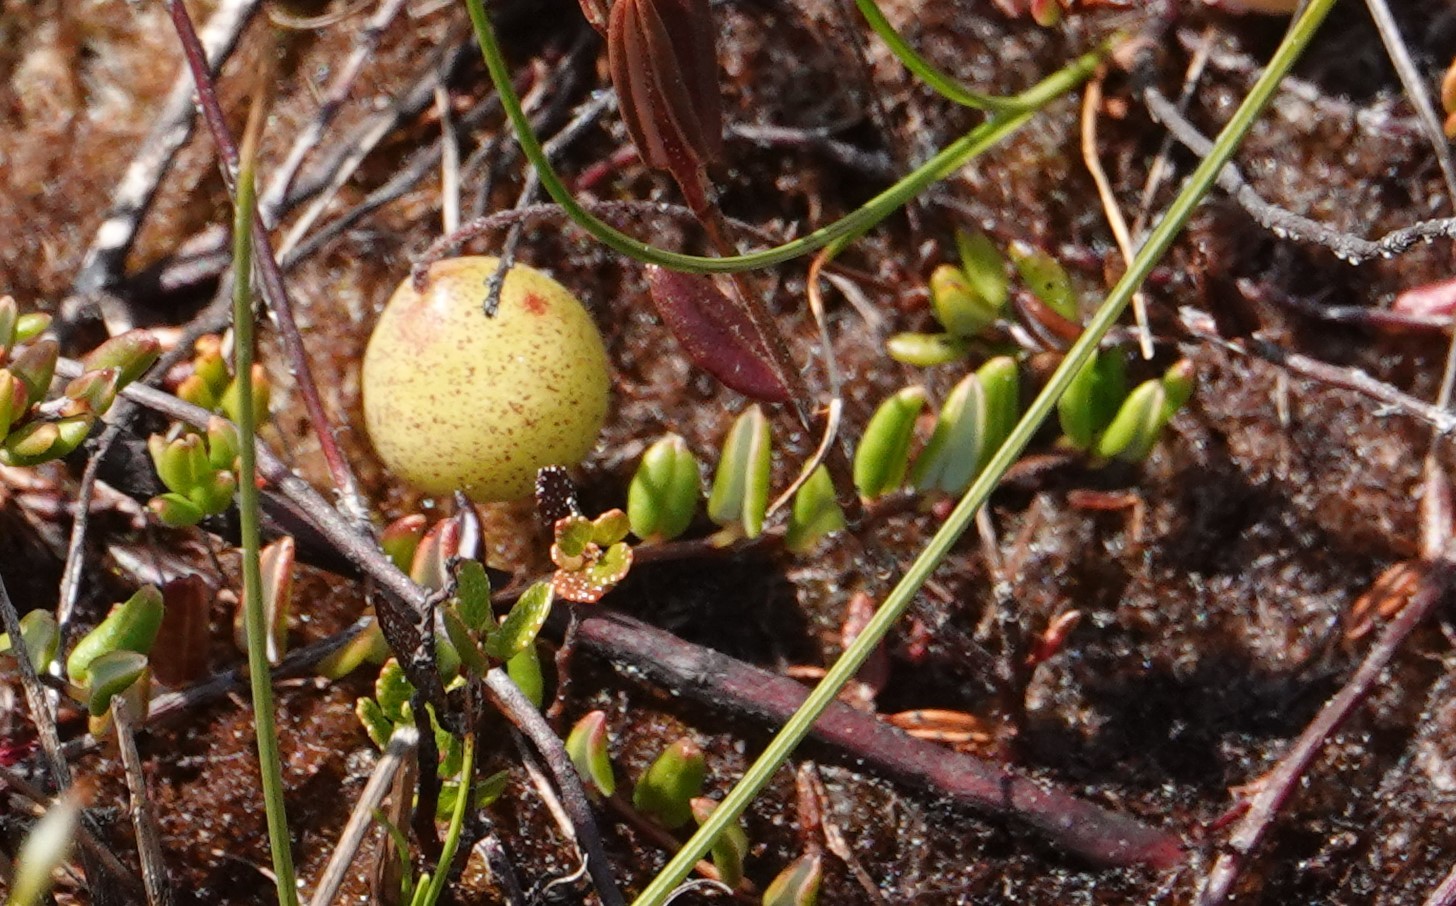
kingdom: Plantae
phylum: Tracheophyta
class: Magnoliopsida
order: Ericales
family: Ericaceae
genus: Vaccinium
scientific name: Vaccinium oxycoccos
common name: Cranberry
